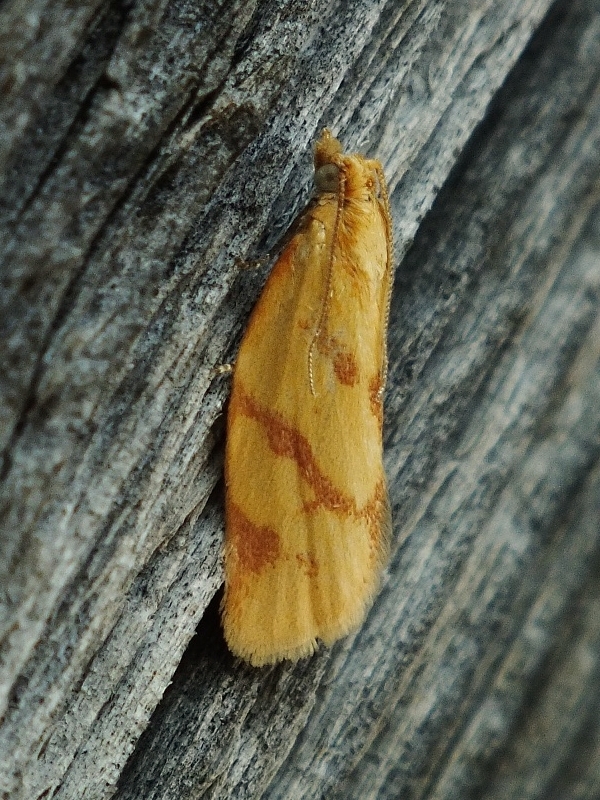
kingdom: Animalia
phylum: Arthropoda
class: Insecta
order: Lepidoptera
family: Tortricidae
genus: Clepsis
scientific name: Clepsis pallidana
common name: Sheep's-bit conch
